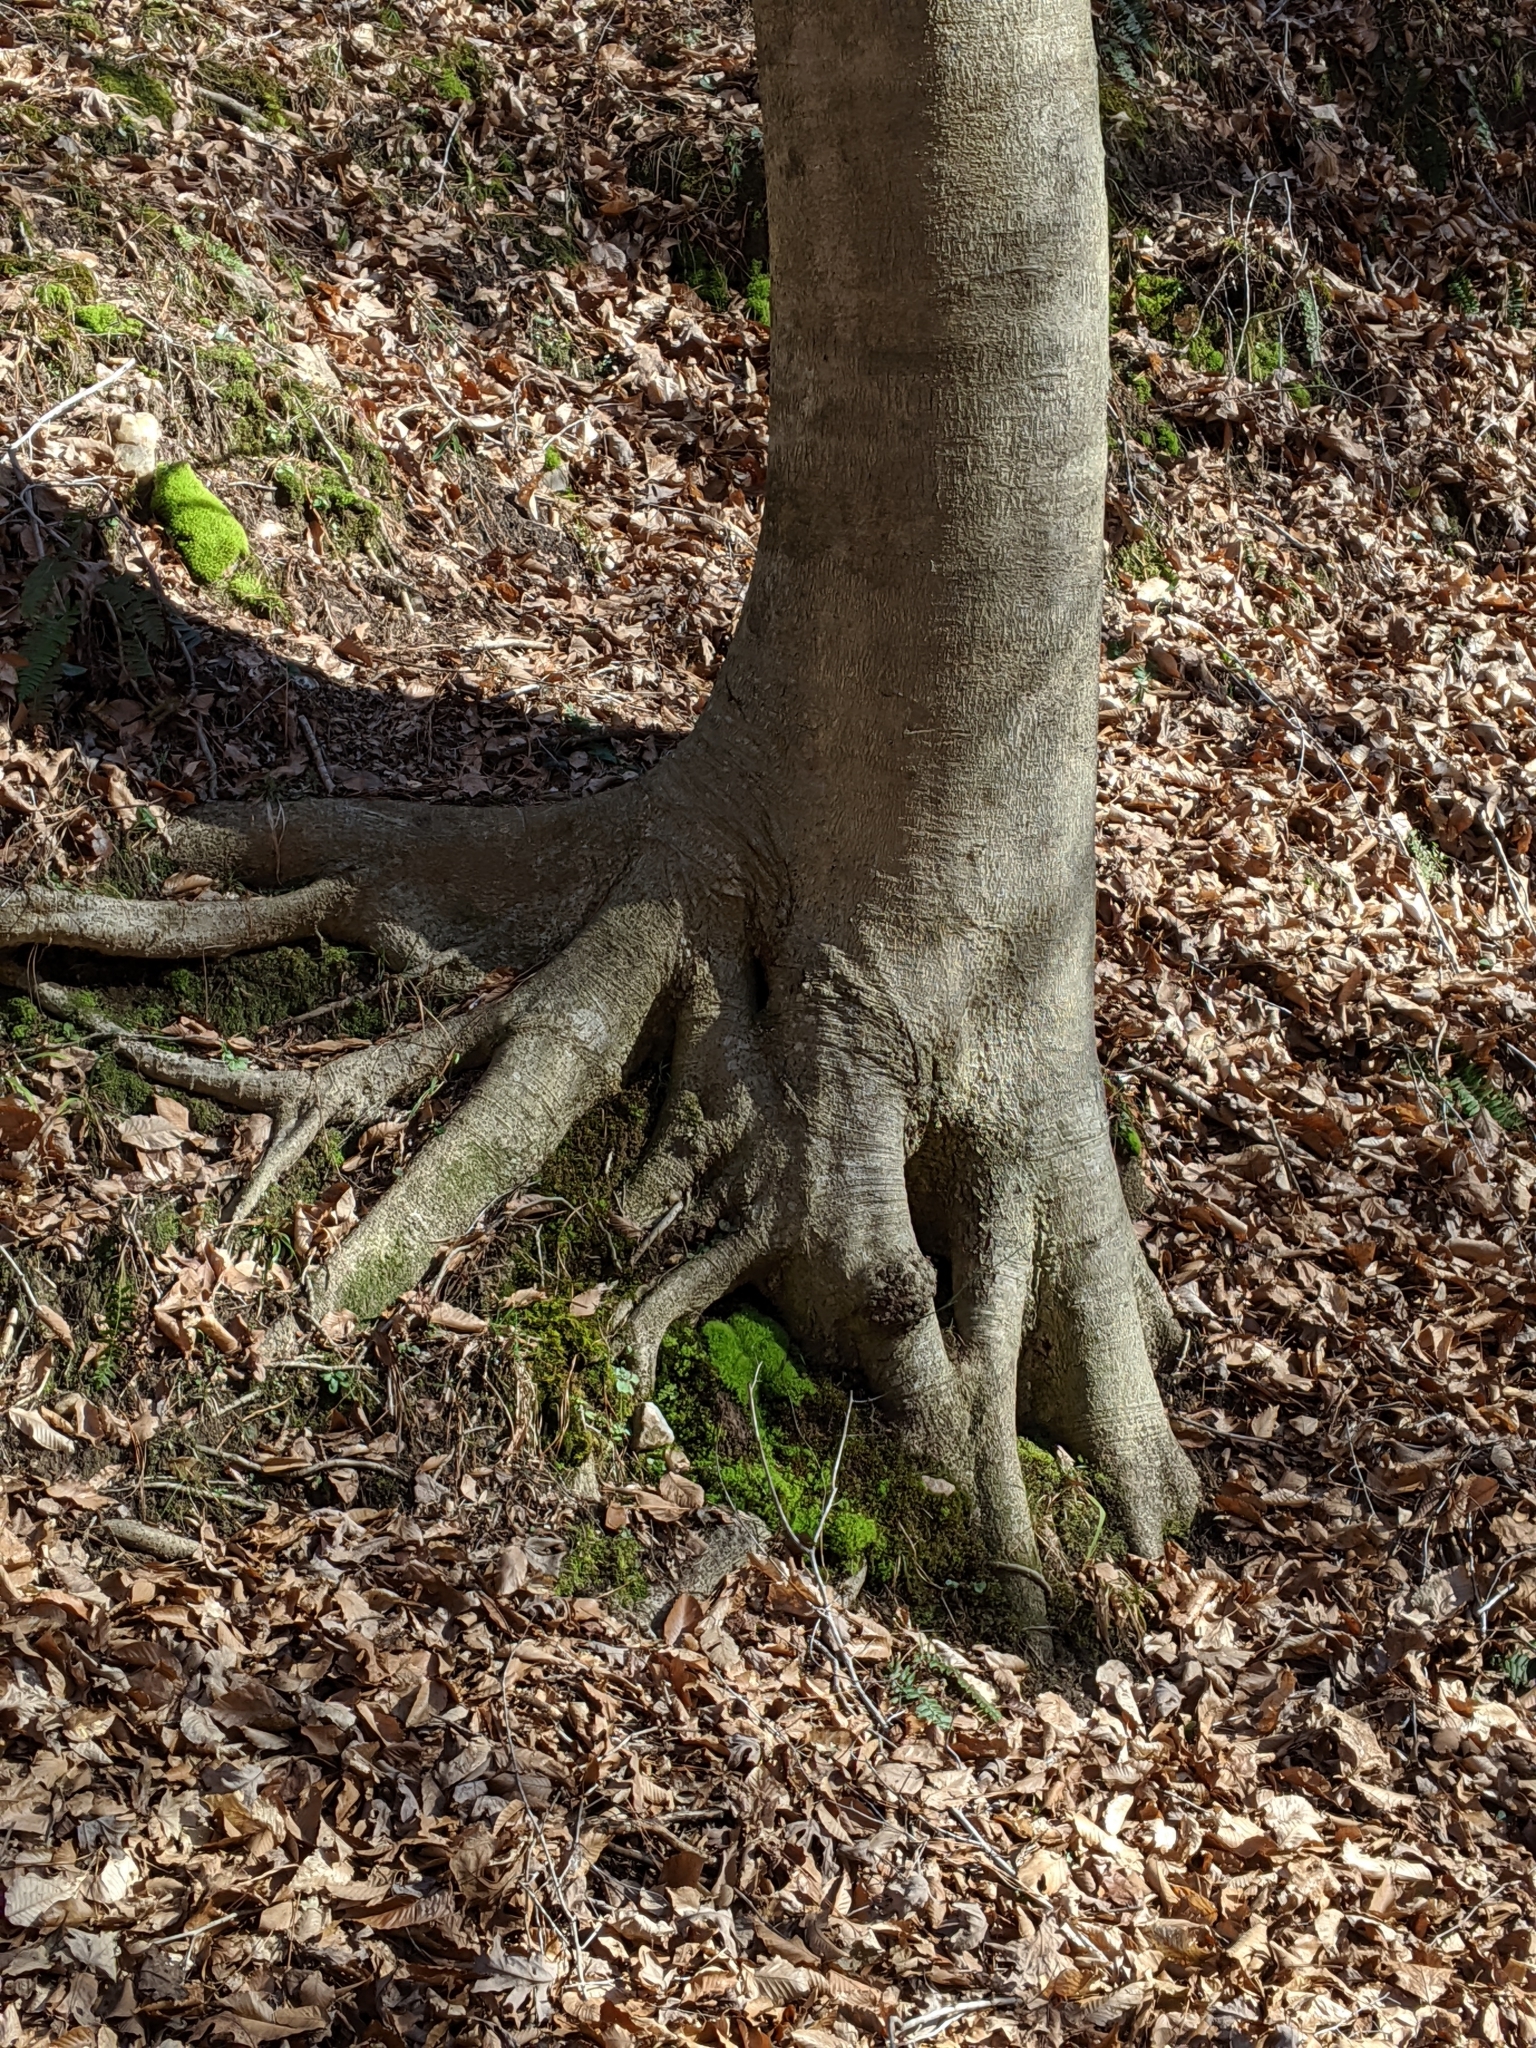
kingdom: Plantae
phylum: Tracheophyta
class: Magnoliopsida
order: Fagales
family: Fagaceae
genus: Fagus
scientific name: Fagus grandifolia
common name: American beech
